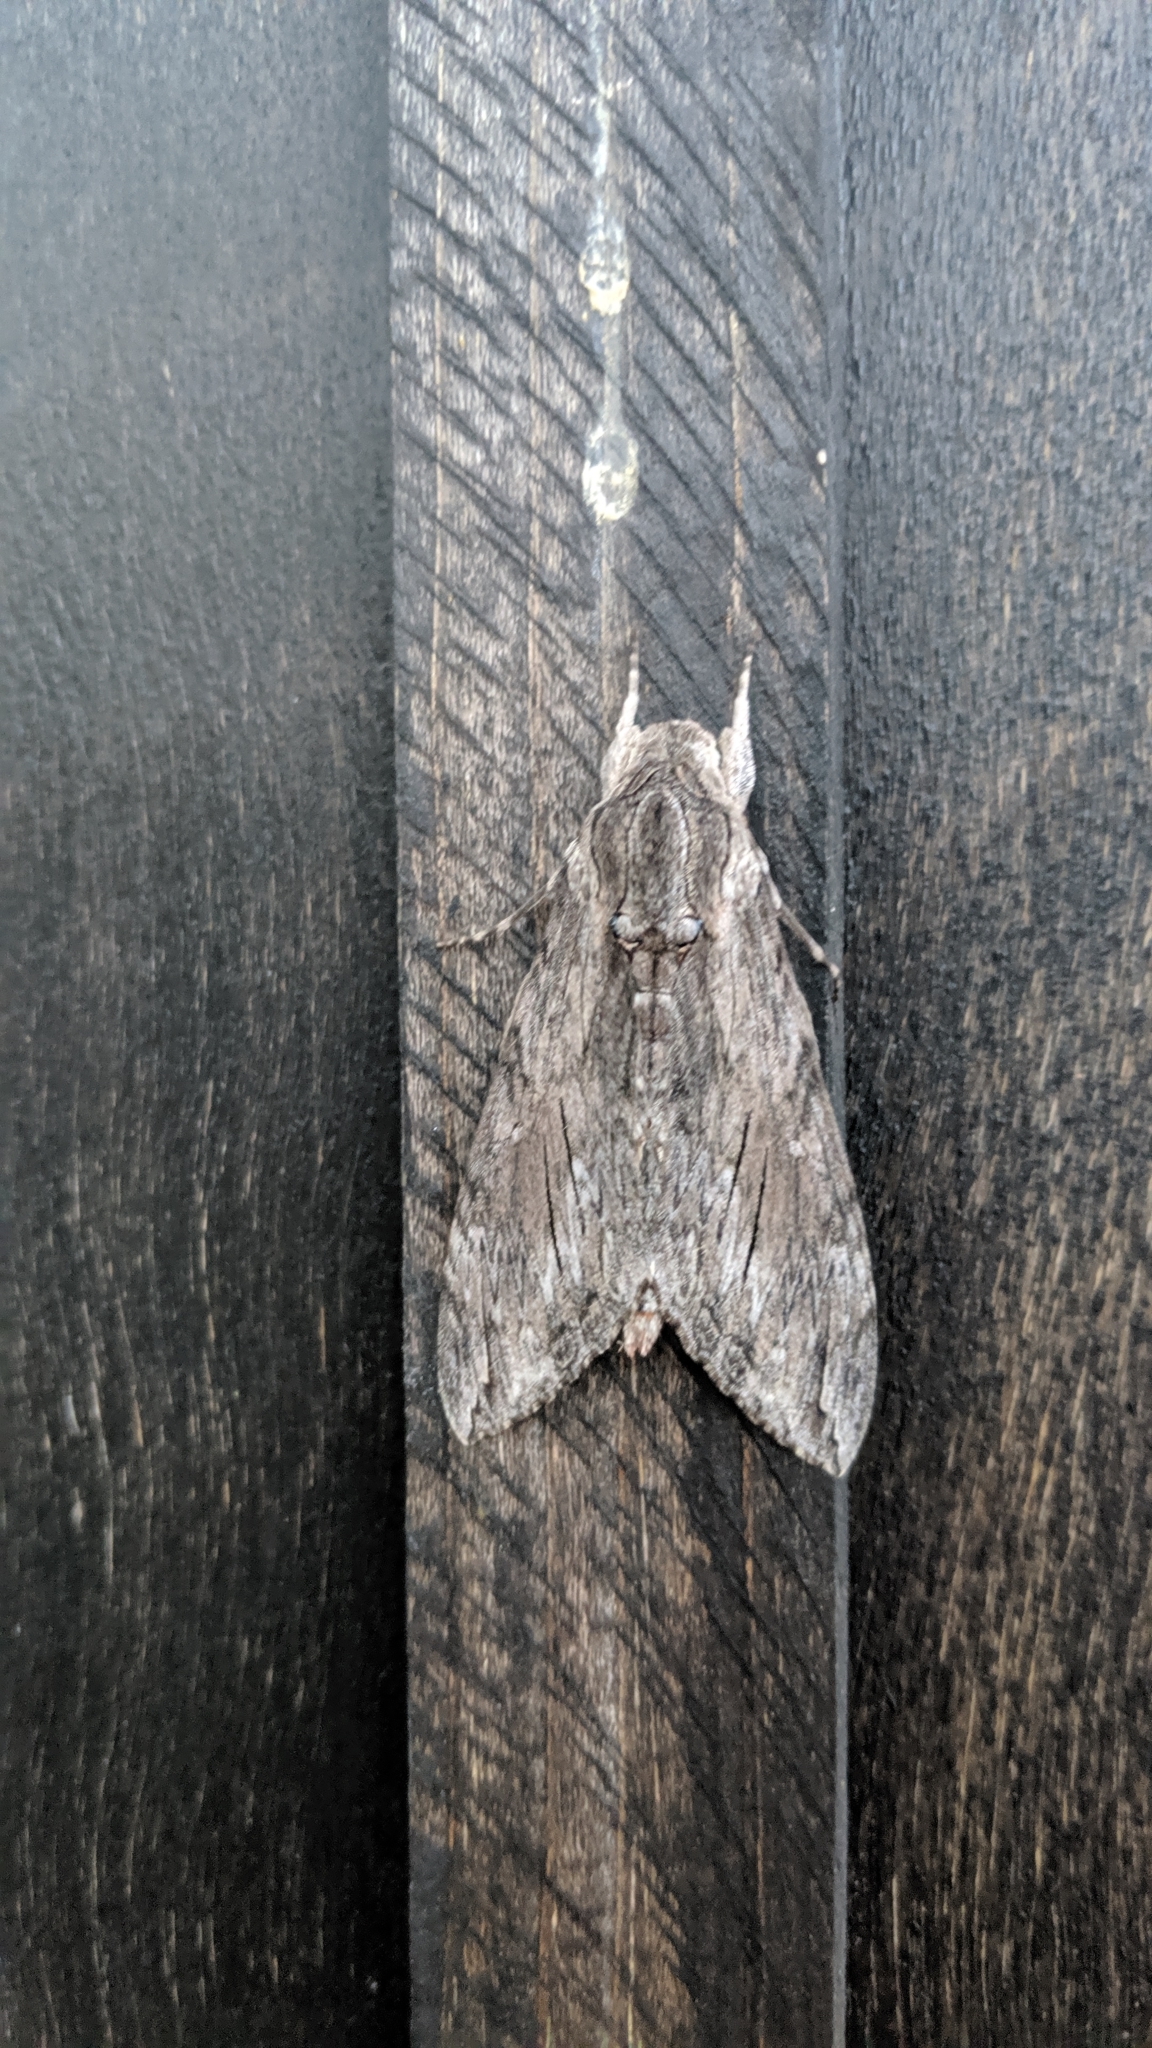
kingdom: Animalia
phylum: Arthropoda
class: Insecta
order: Lepidoptera
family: Sphingidae
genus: Agrius
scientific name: Agrius convolvuli
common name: Convolvulus hawkmoth
